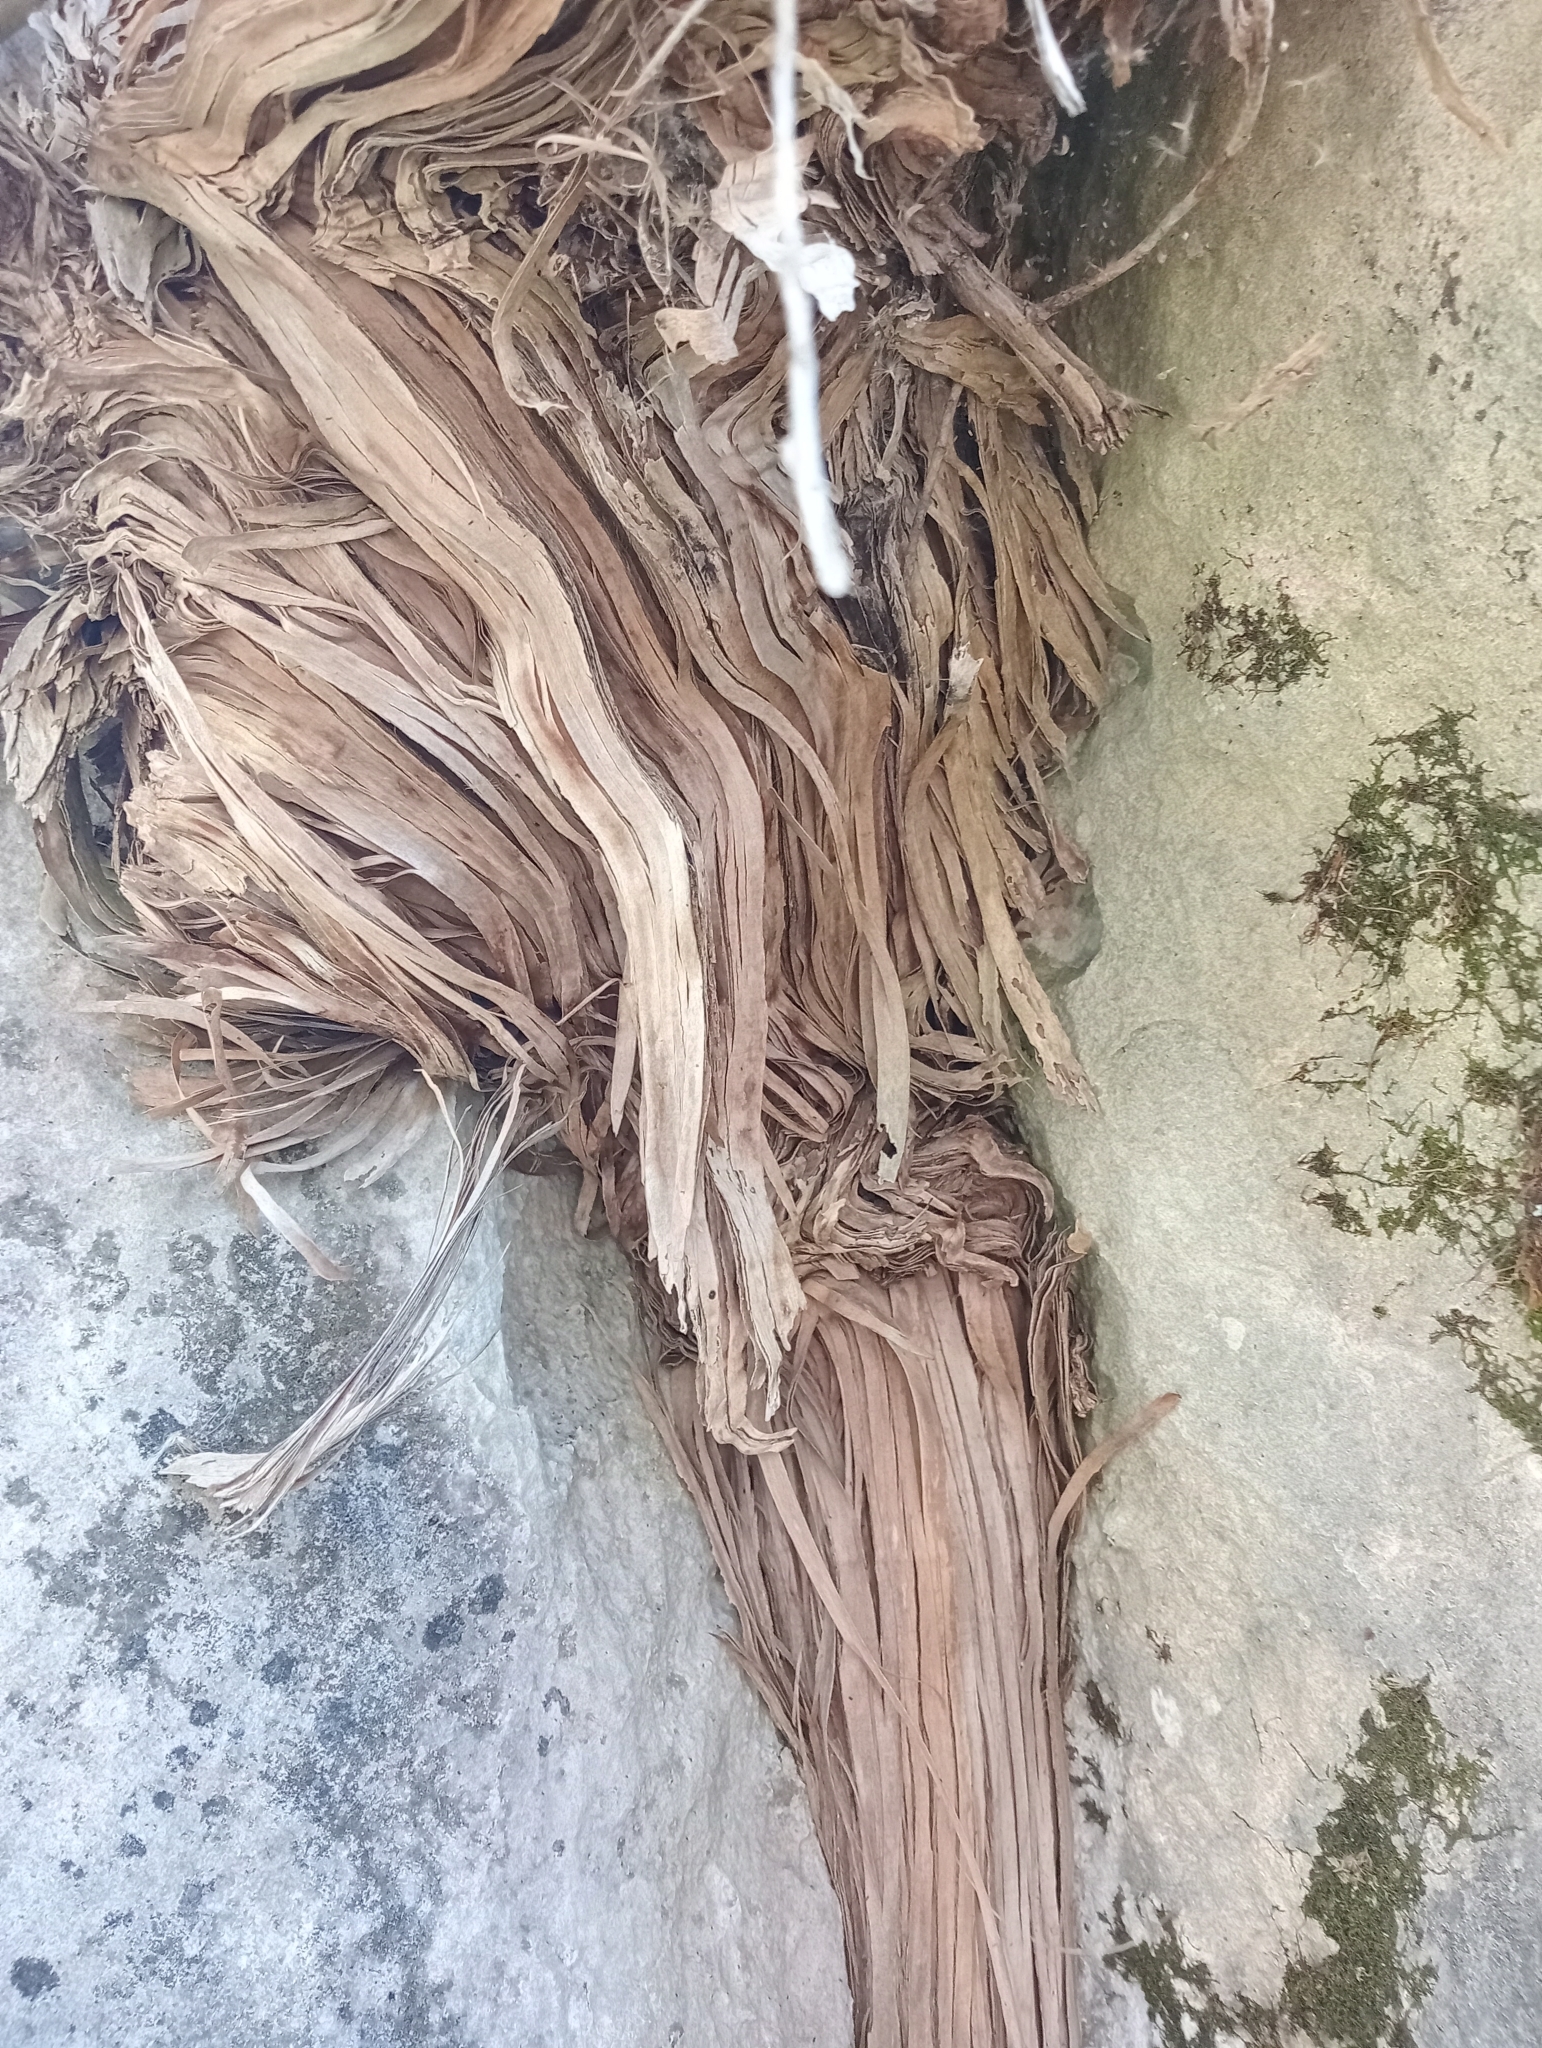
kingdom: Plantae
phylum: Tracheophyta
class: Magnoliopsida
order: Asterales
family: Asteraceae
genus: Olearia
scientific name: Olearia avicenniifolia
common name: Mangrove-leaf daisybush
